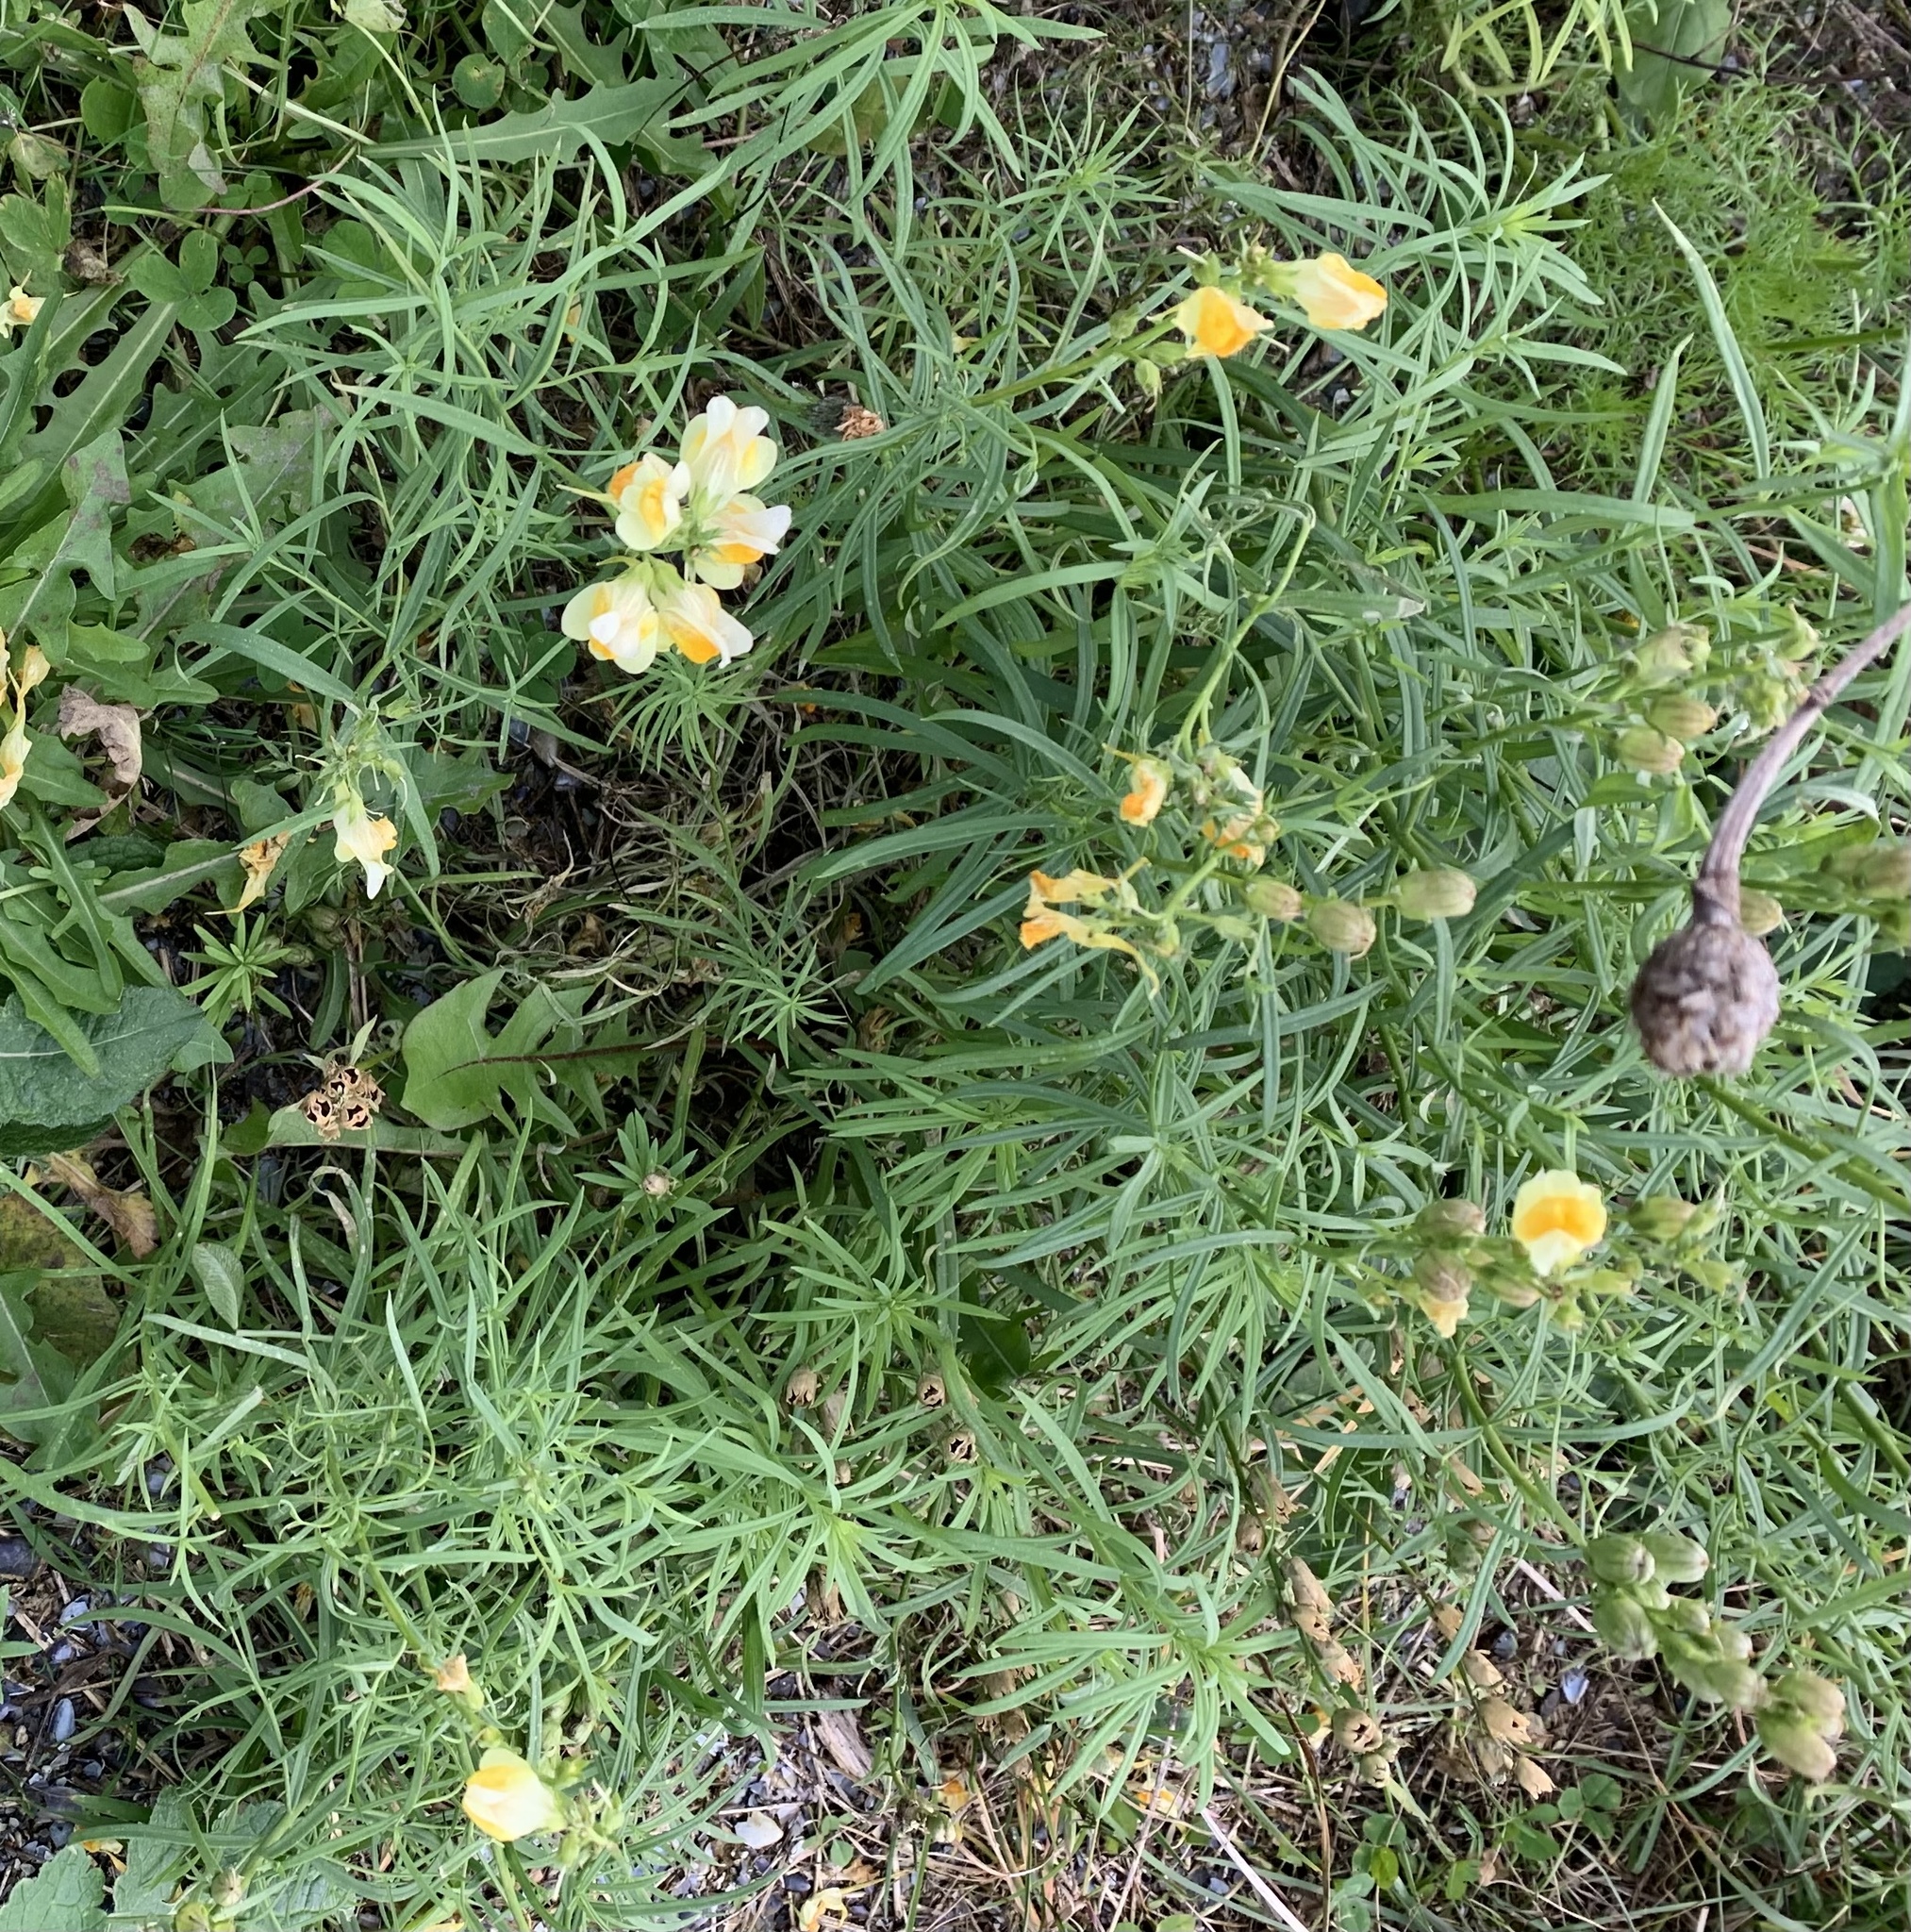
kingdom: Plantae
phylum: Tracheophyta
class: Magnoliopsida
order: Lamiales
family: Plantaginaceae
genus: Linaria
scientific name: Linaria vulgaris
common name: Butter and eggs
